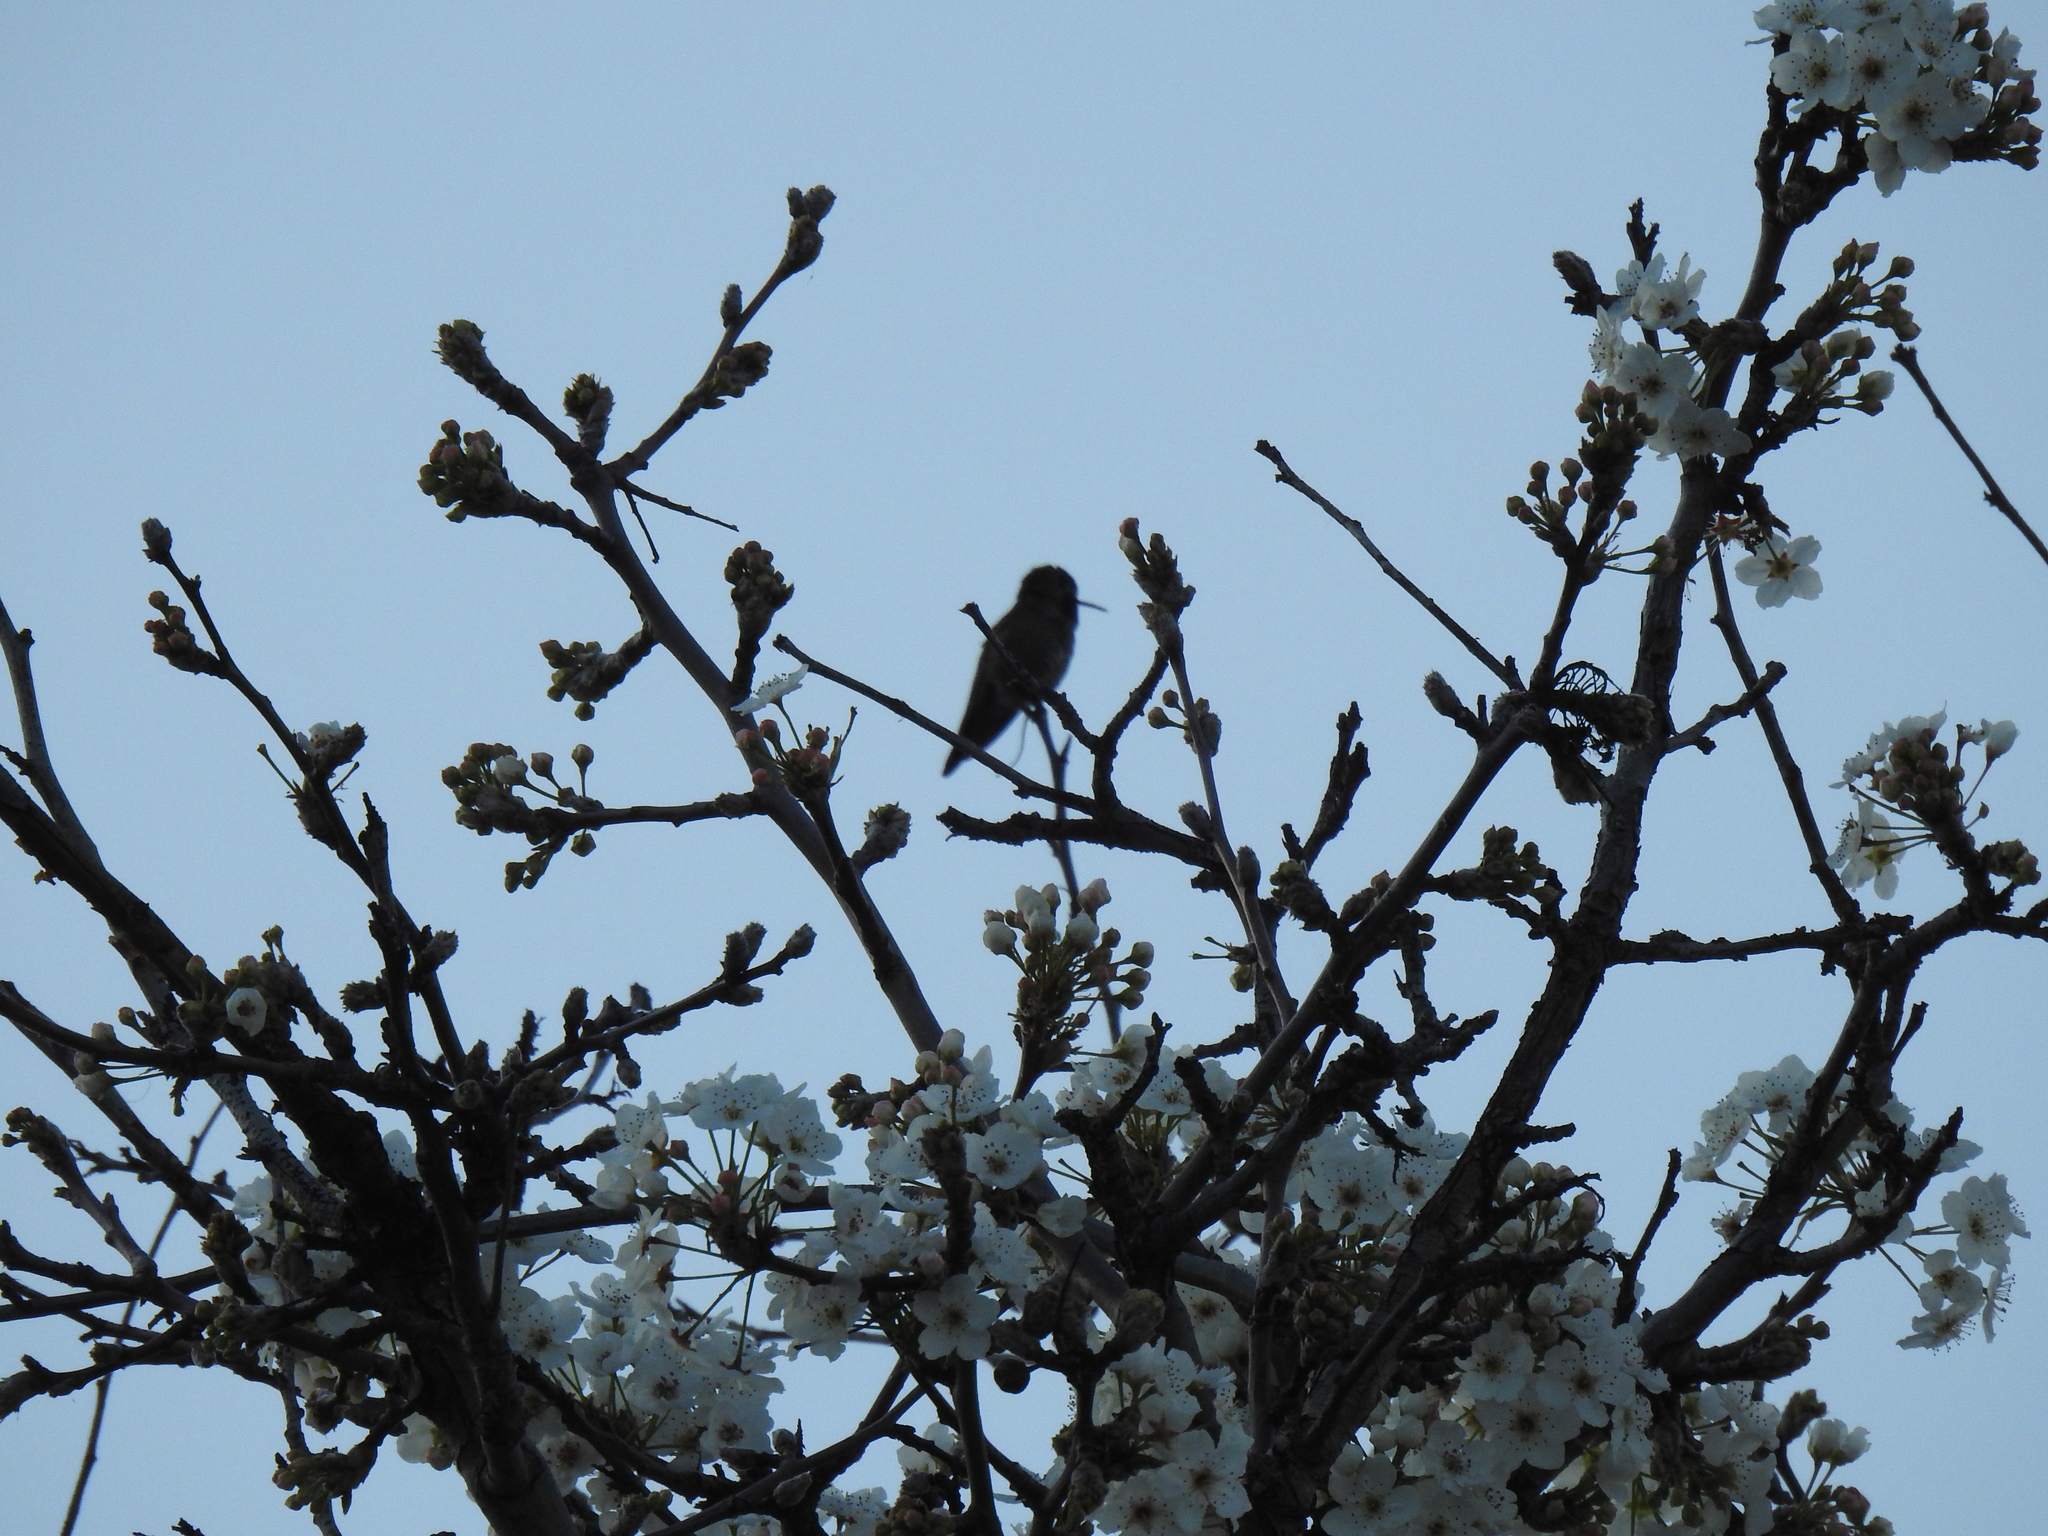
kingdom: Animalia
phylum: Chordata
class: Aves
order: Apodiformes
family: Trochilidae
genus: Calypte
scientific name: Calypte anna
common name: Anna's hummingbird
